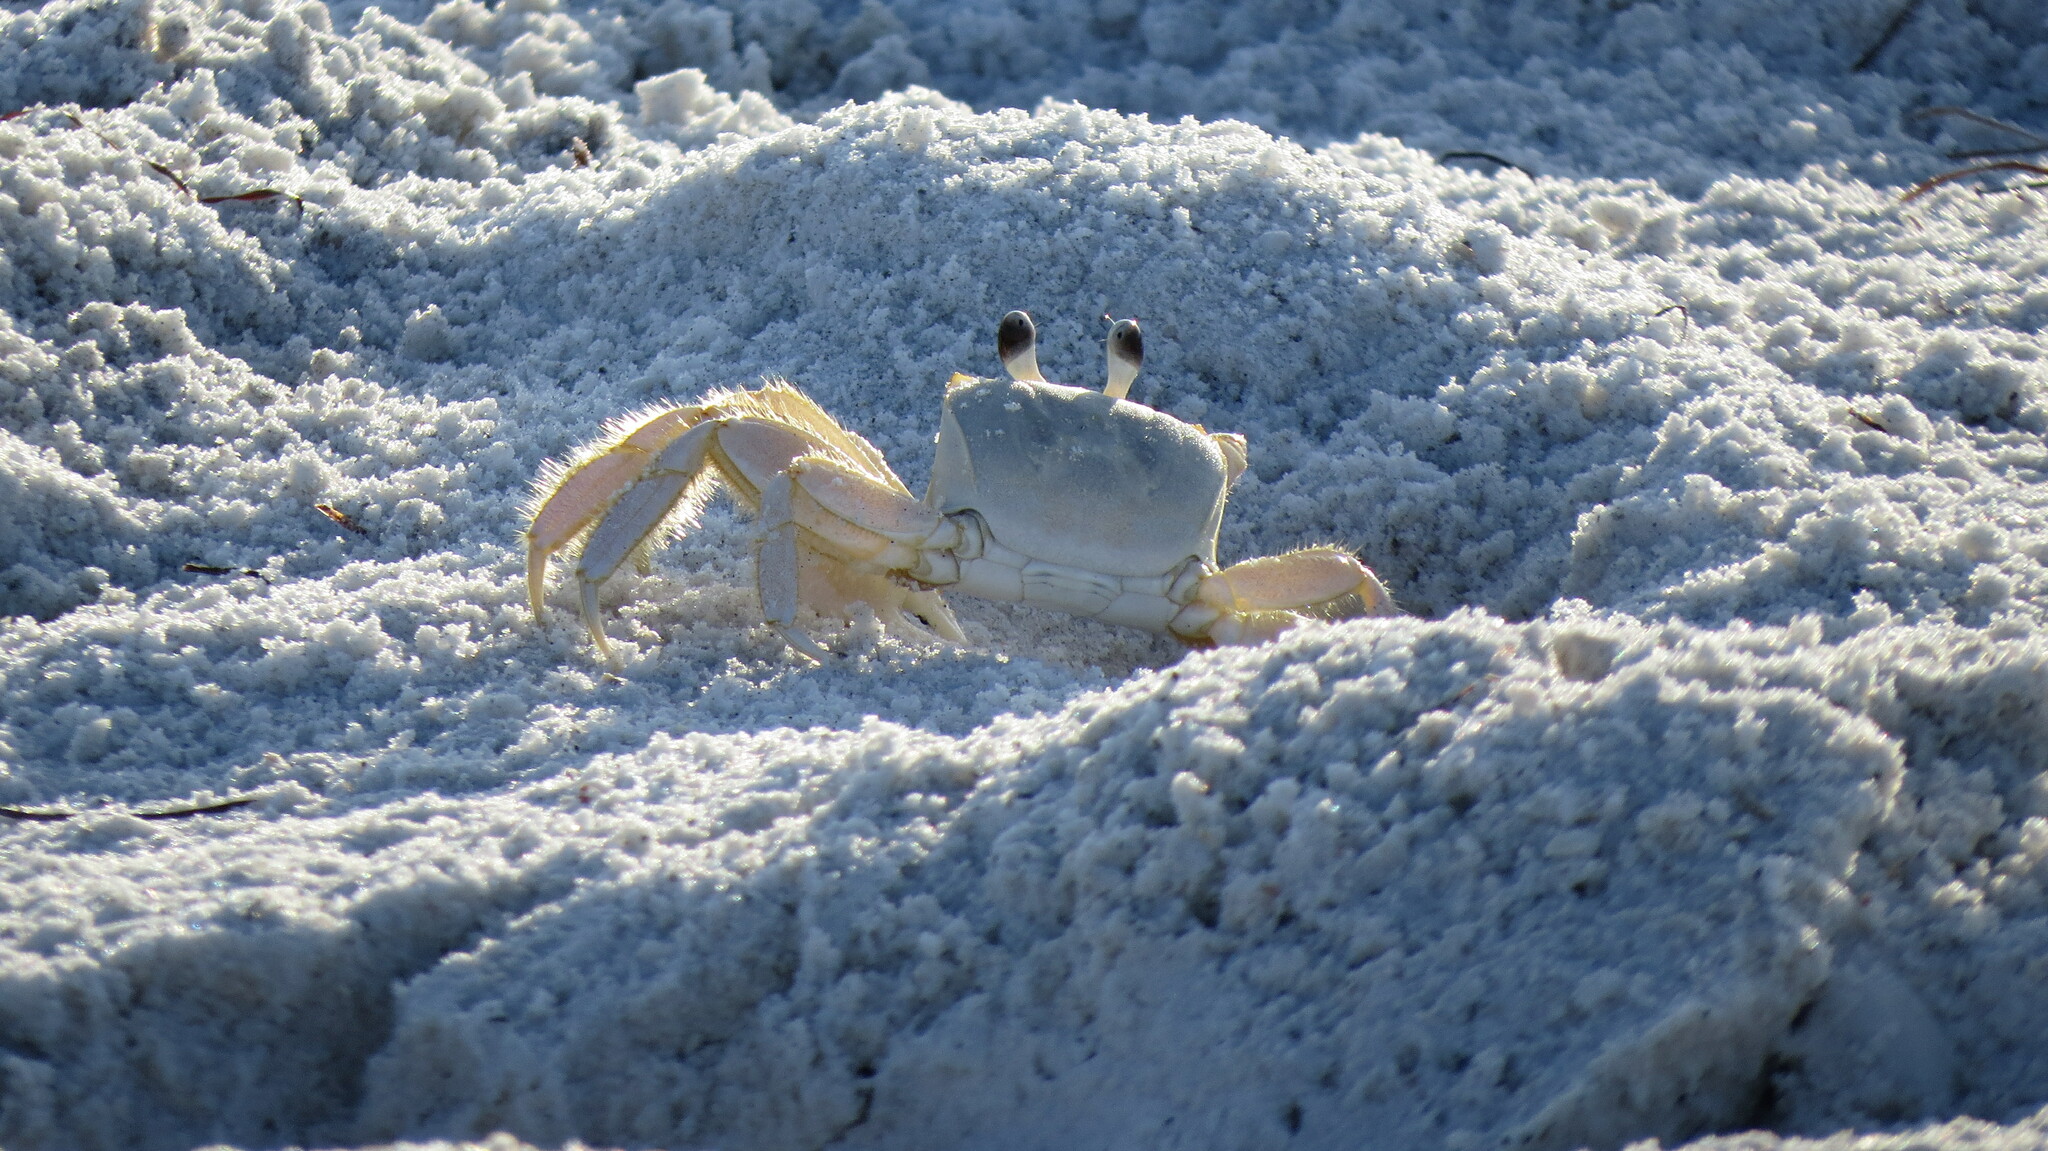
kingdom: Animalia
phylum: Arthropoda
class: Malacostraca
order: Decapoda
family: Ocypodidae
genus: Ocypode
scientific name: Ocypode quadrata
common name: Ghost crab
